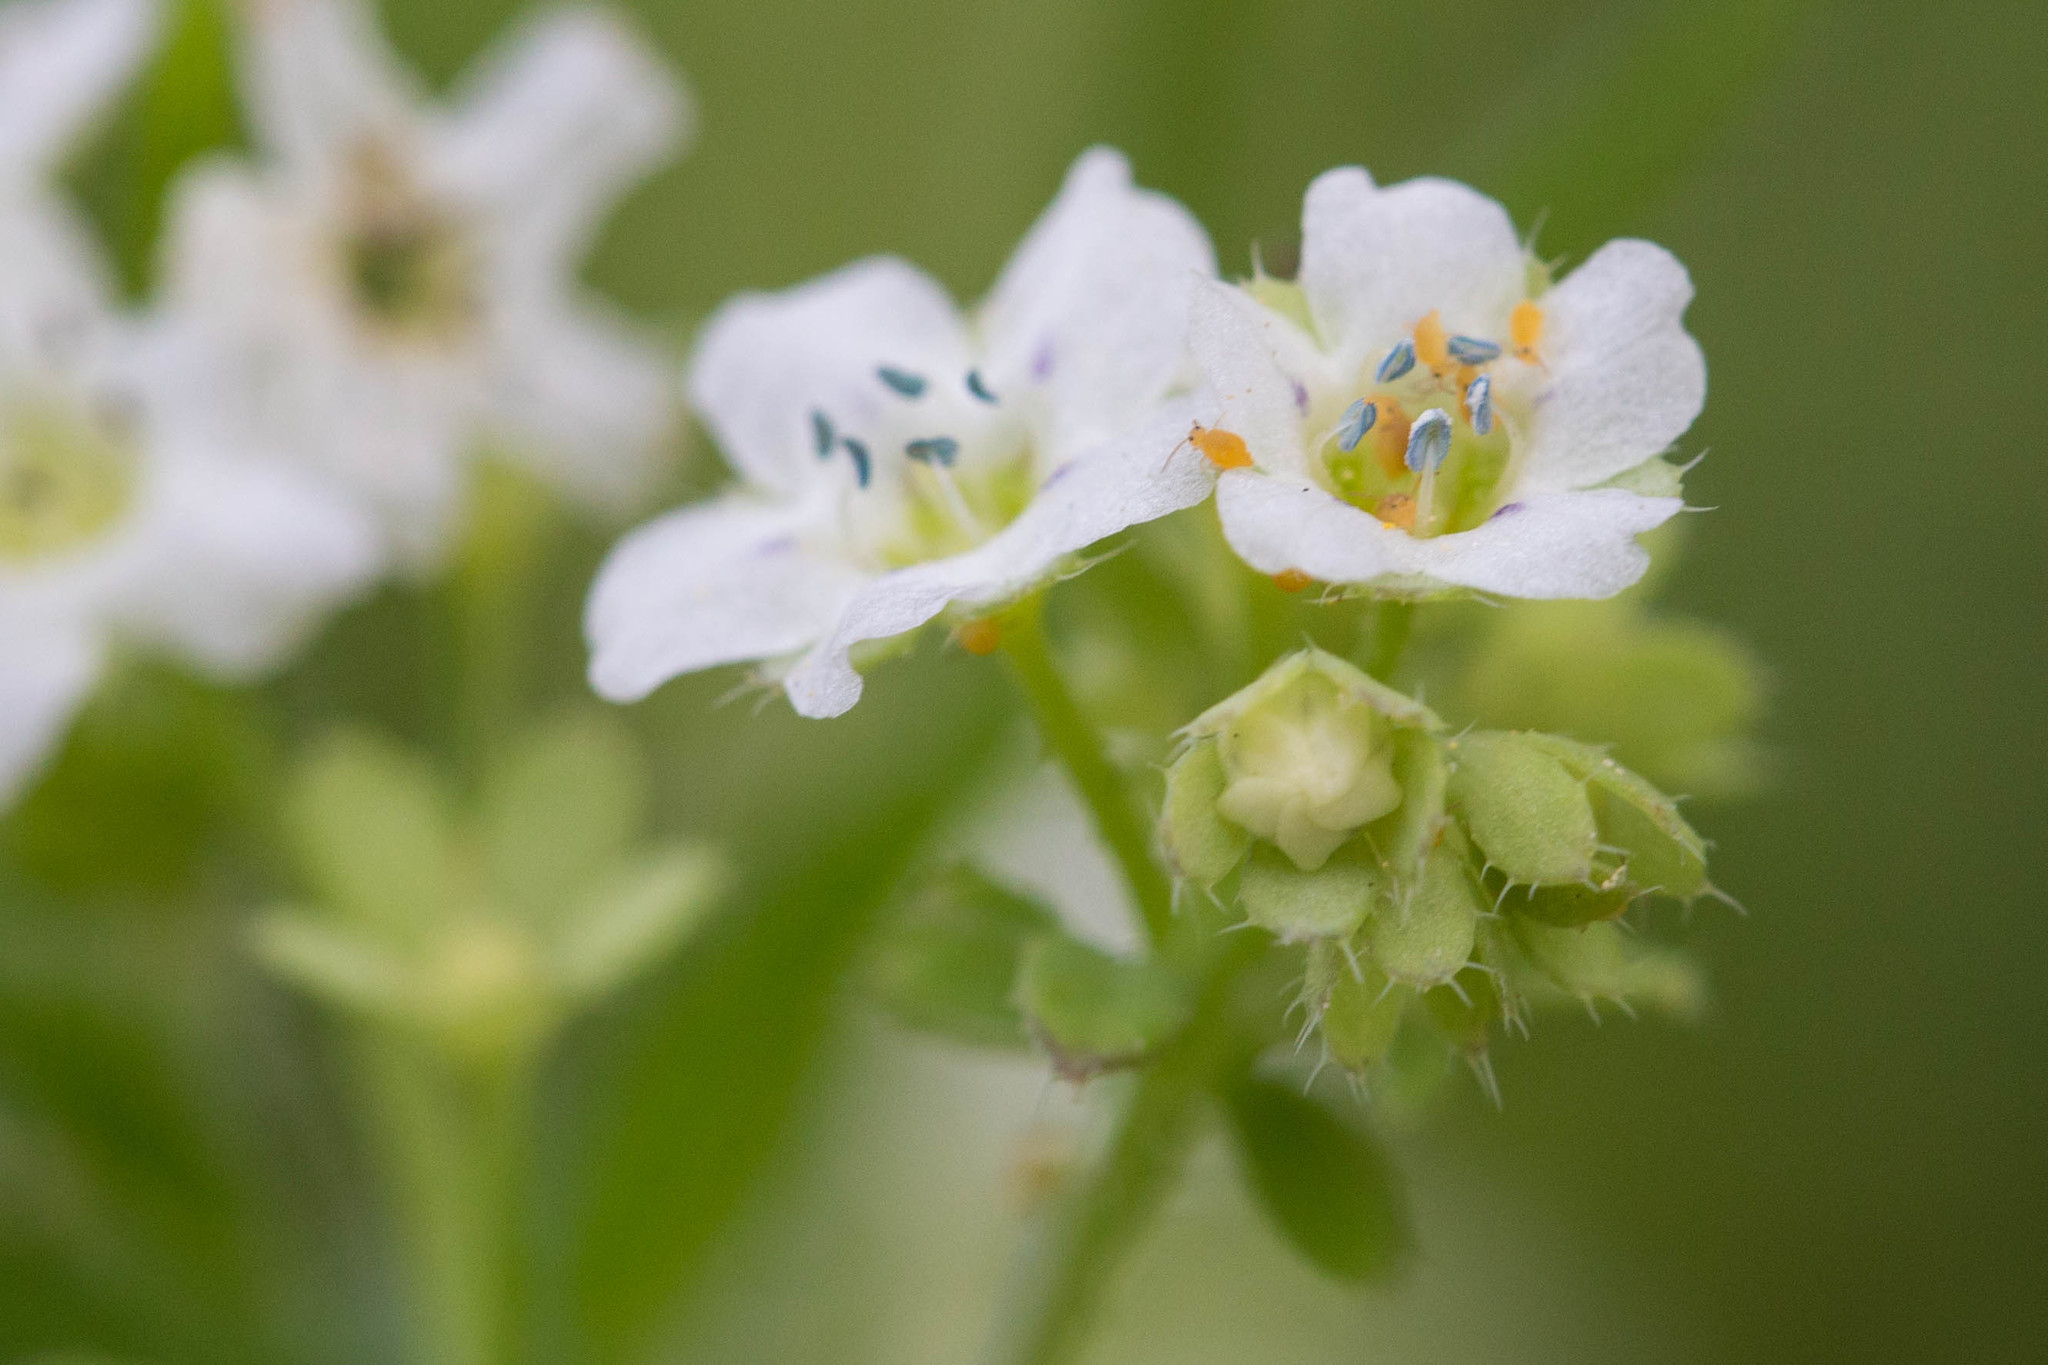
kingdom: Plantae
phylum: Tracheophyta
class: Magnoliopsida
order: Boraginales
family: Hydrophyllaceae
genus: Pholistoma
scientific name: Pholistoma membranaceum
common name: White fiesta-flower
